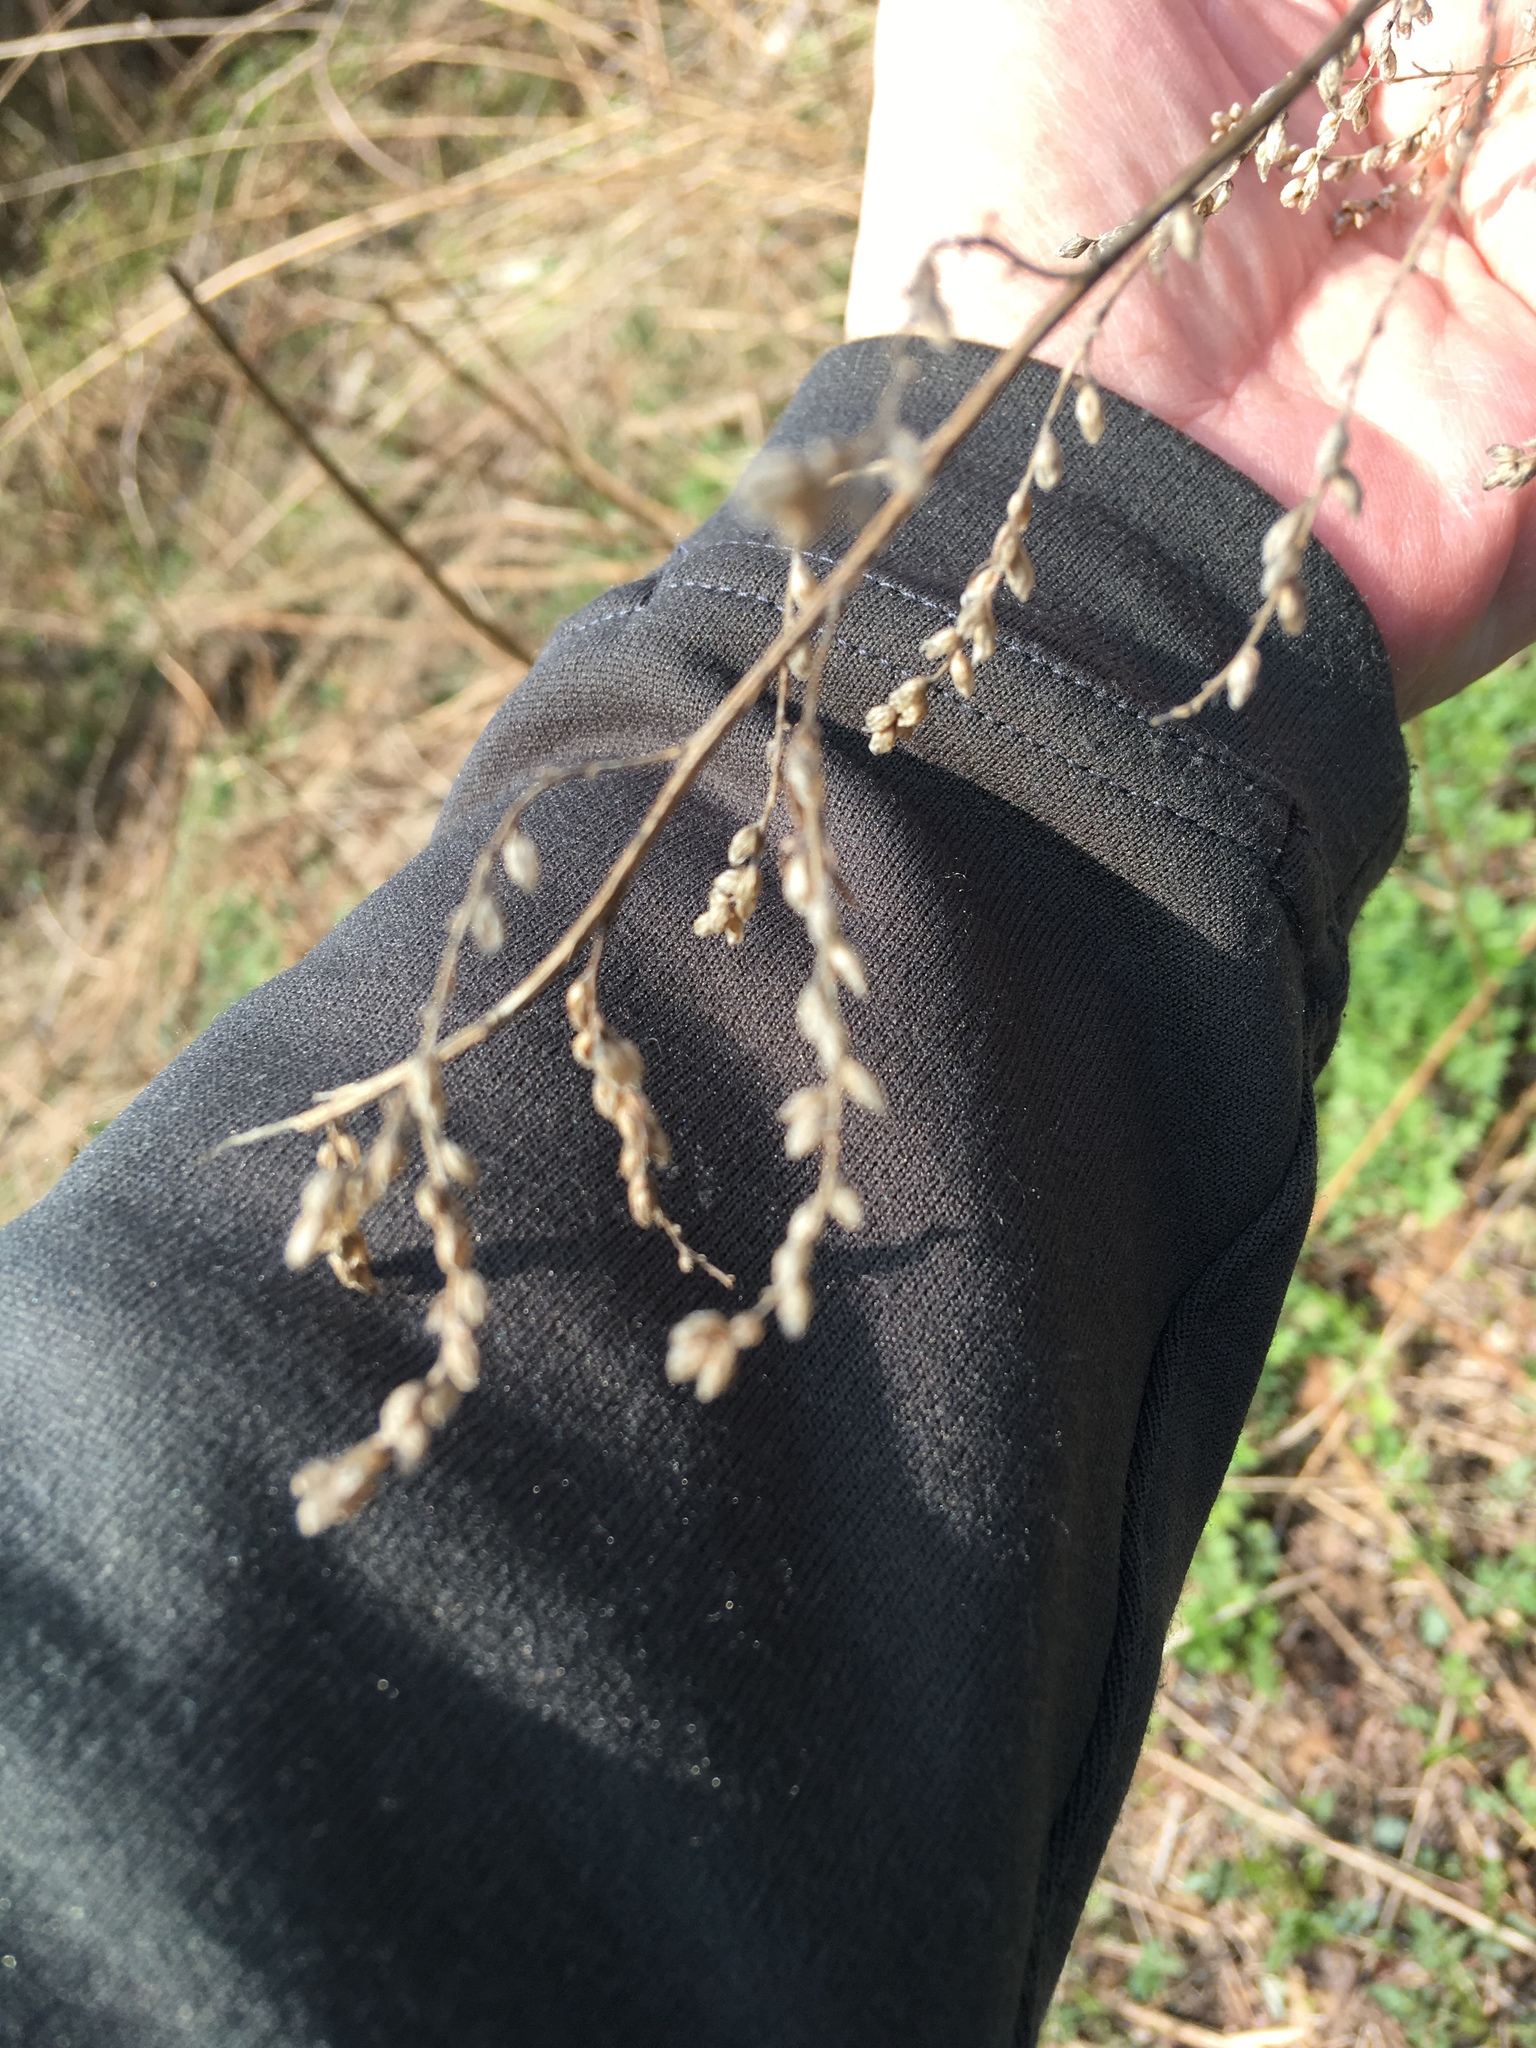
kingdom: Plantae
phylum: Tracheophyta
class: Magnoliopsida
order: Asterales
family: Asteraceae
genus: Artemisia
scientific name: Artemisia vulgaris
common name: Mugwort
